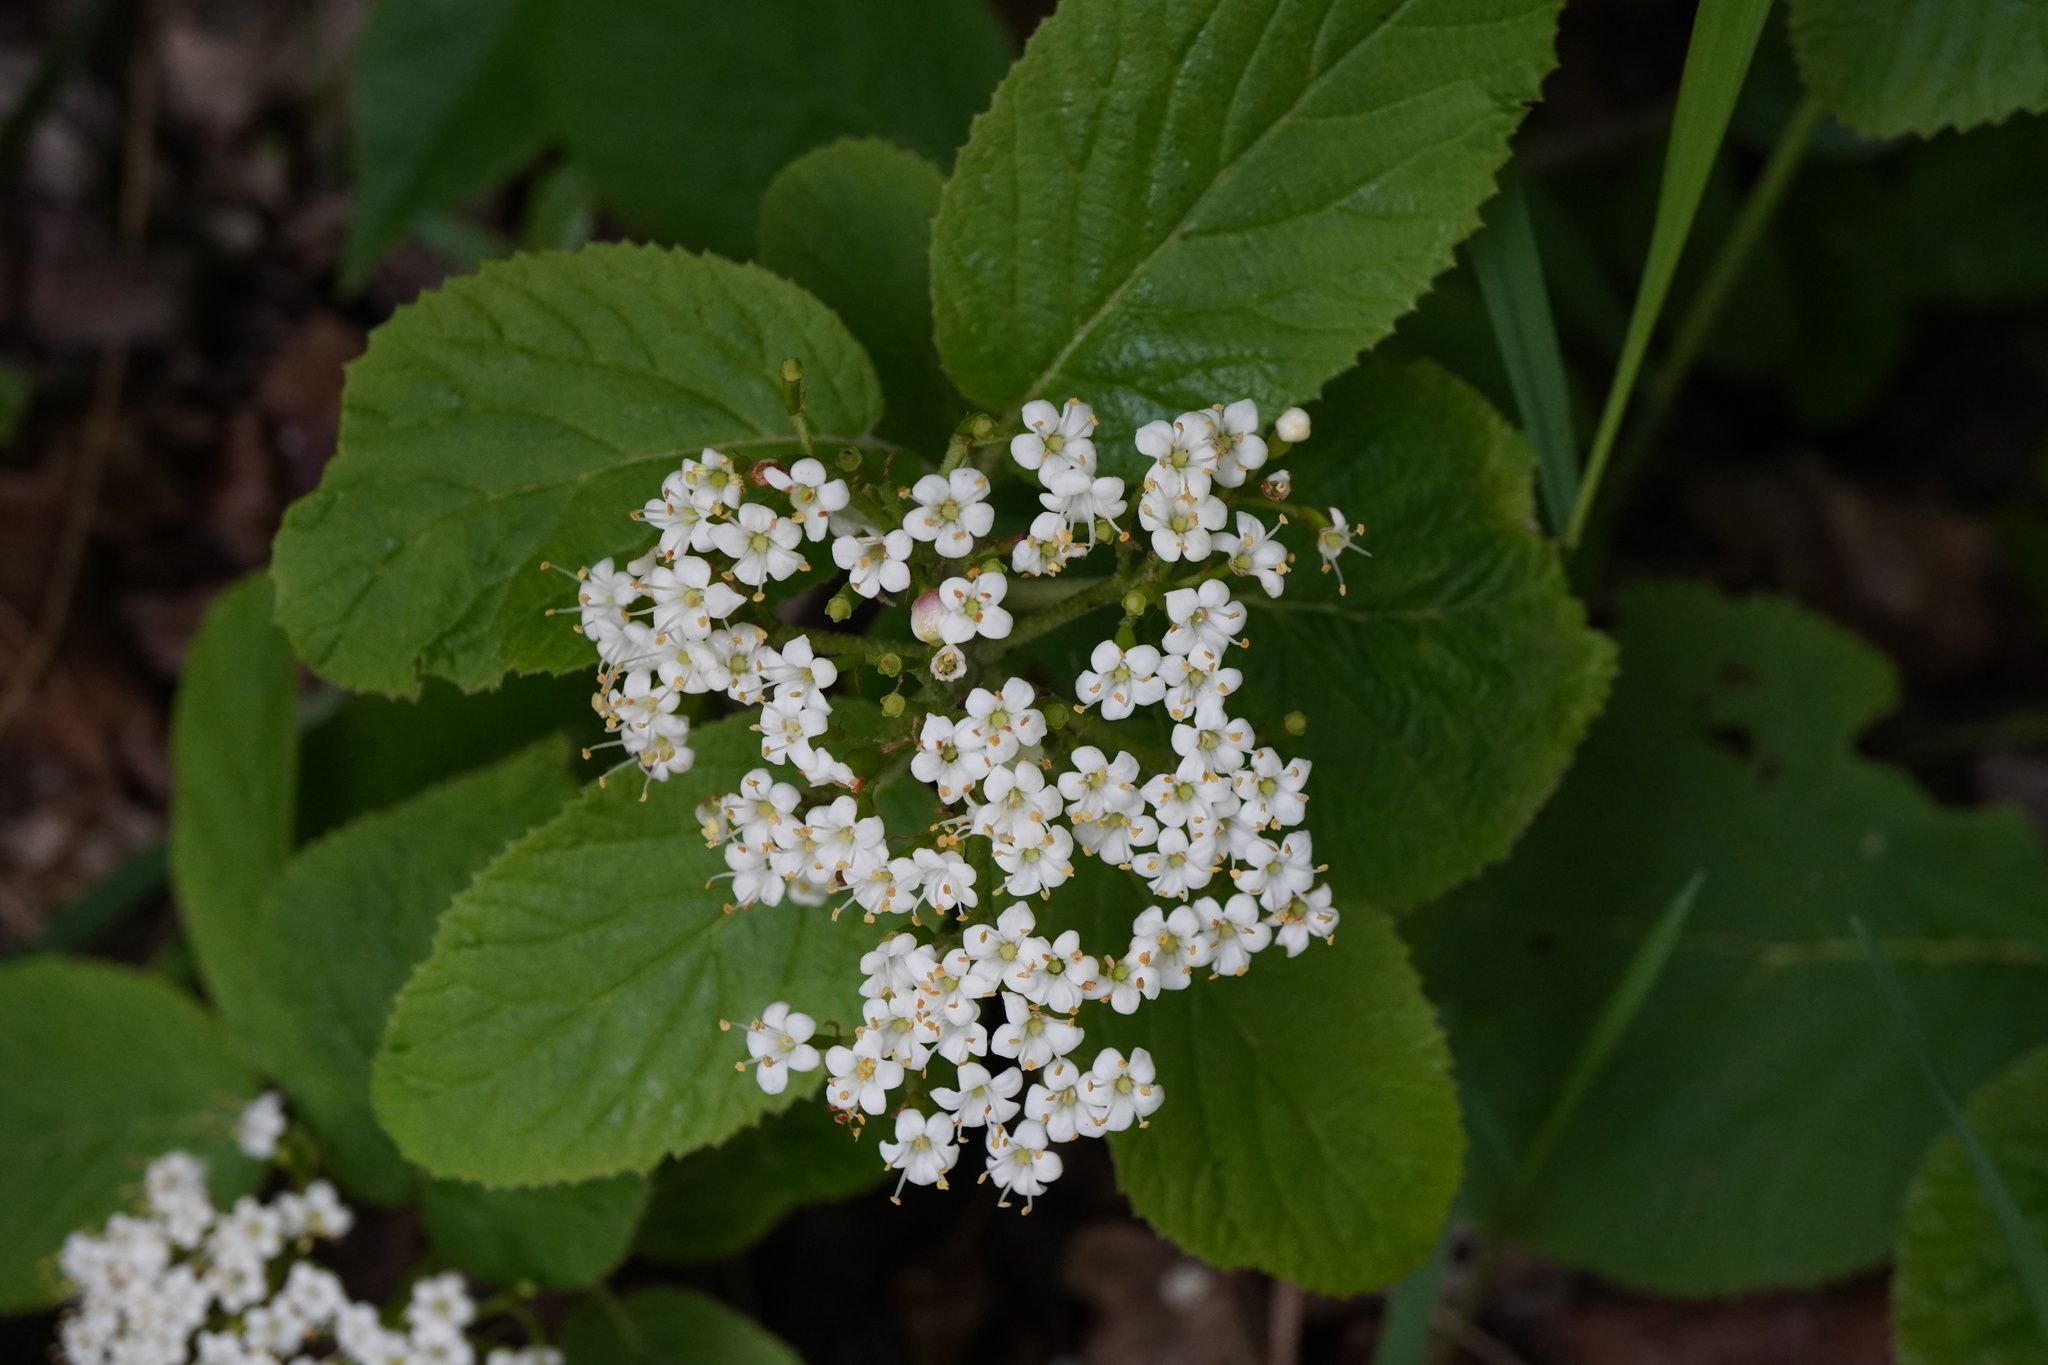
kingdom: Plantae
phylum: Tracheophyta
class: Magnoliopsida
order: Dipsacales
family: Viburnaceae
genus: Viburnum
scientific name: Viburnum lantana
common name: Wayfaring tree
